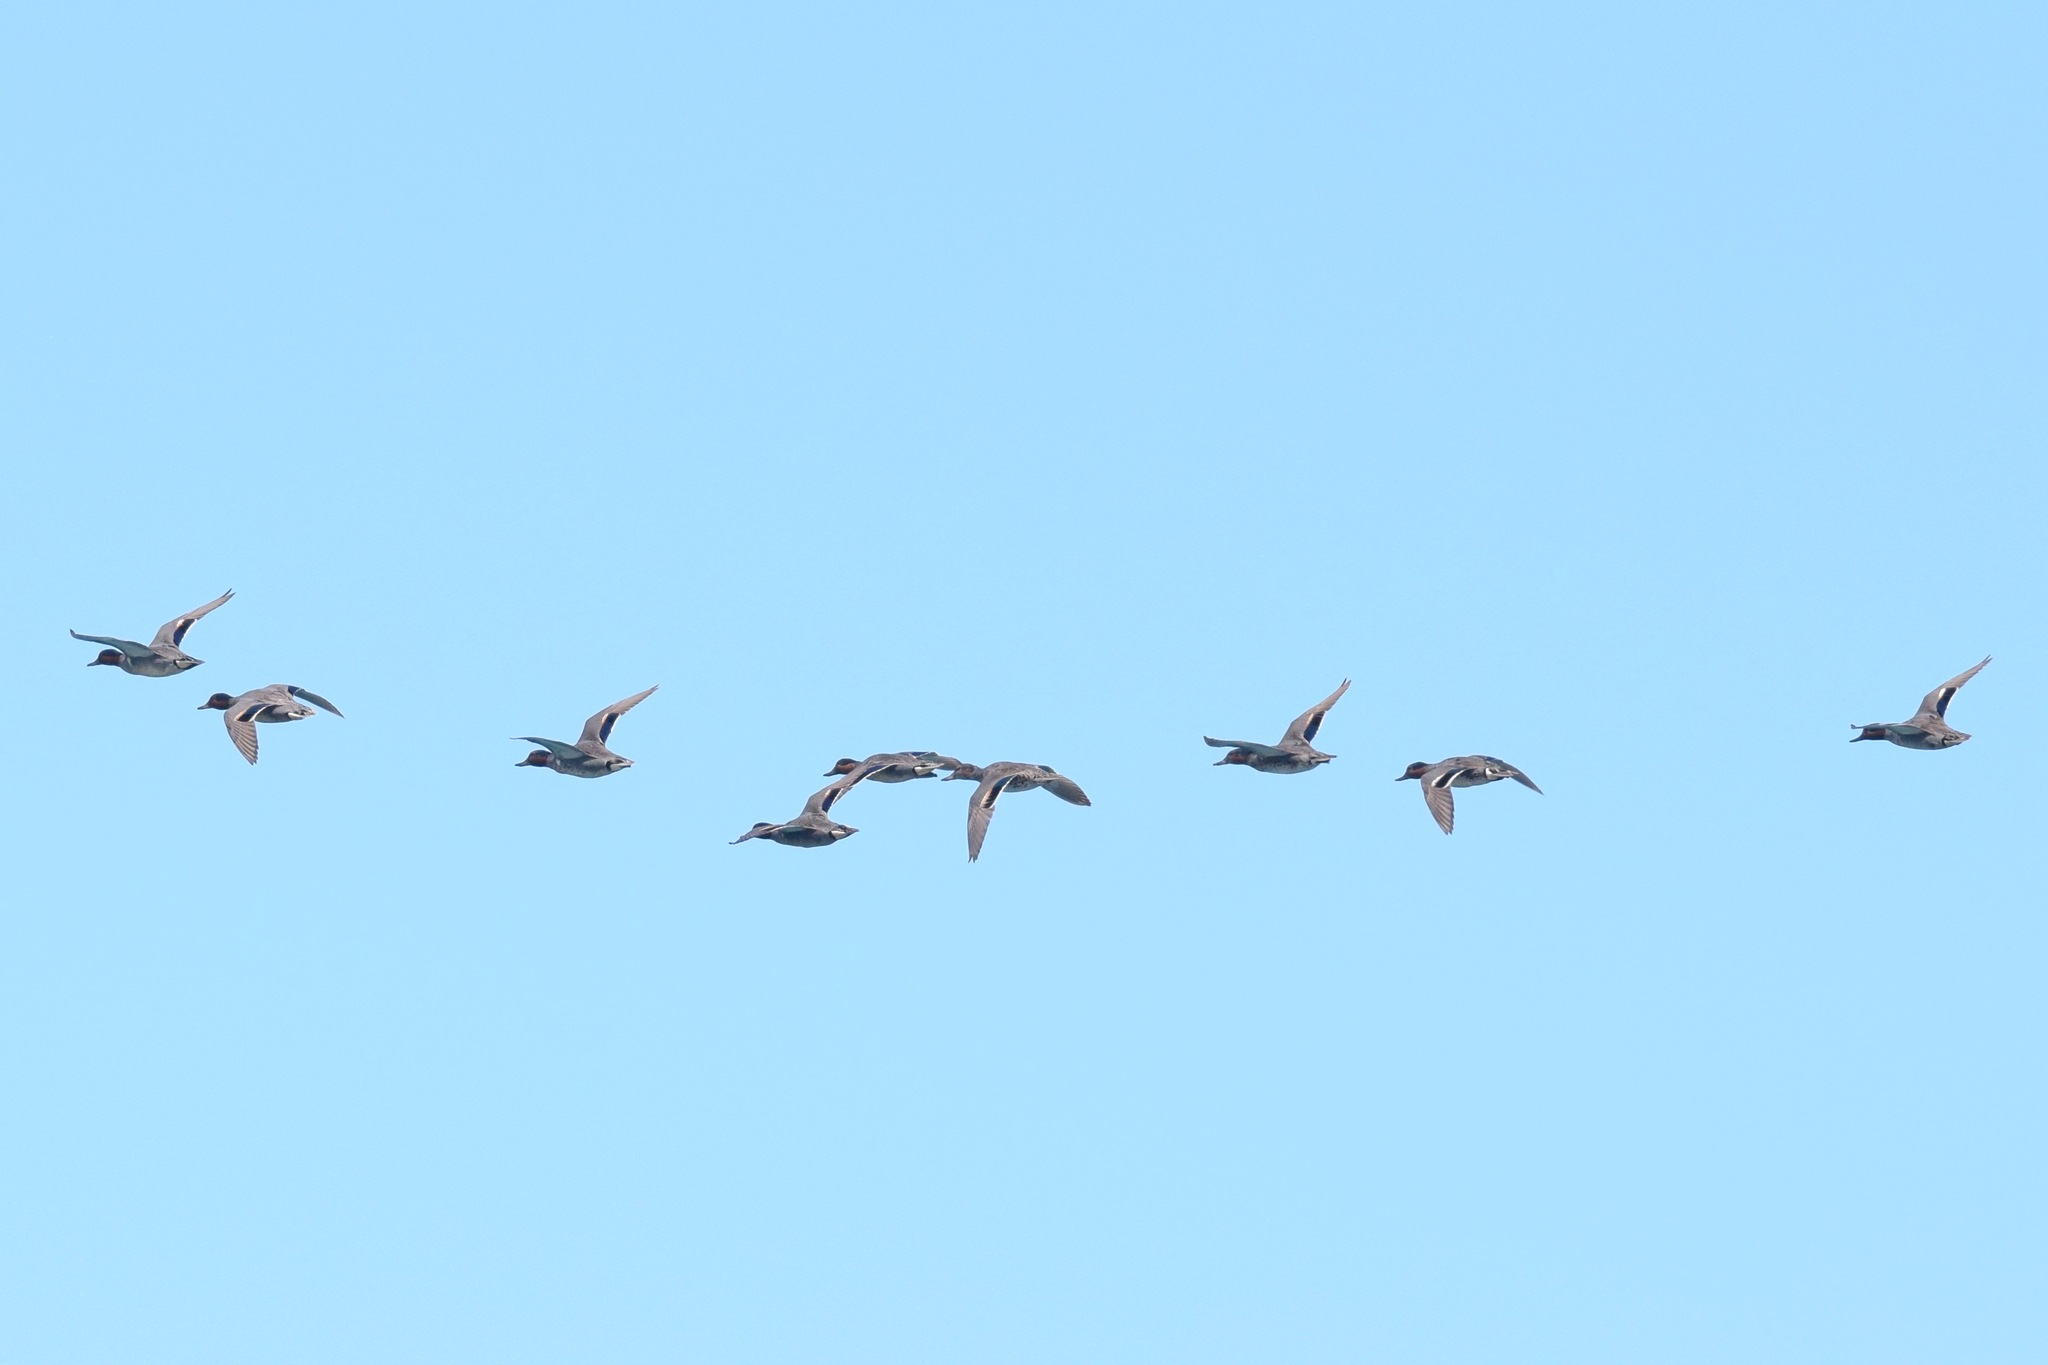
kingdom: Animalia
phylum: Chordata
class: Aves
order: Anseriformes
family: Anatidae
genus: Anas
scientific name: Anas crecca
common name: Eurasian teal
